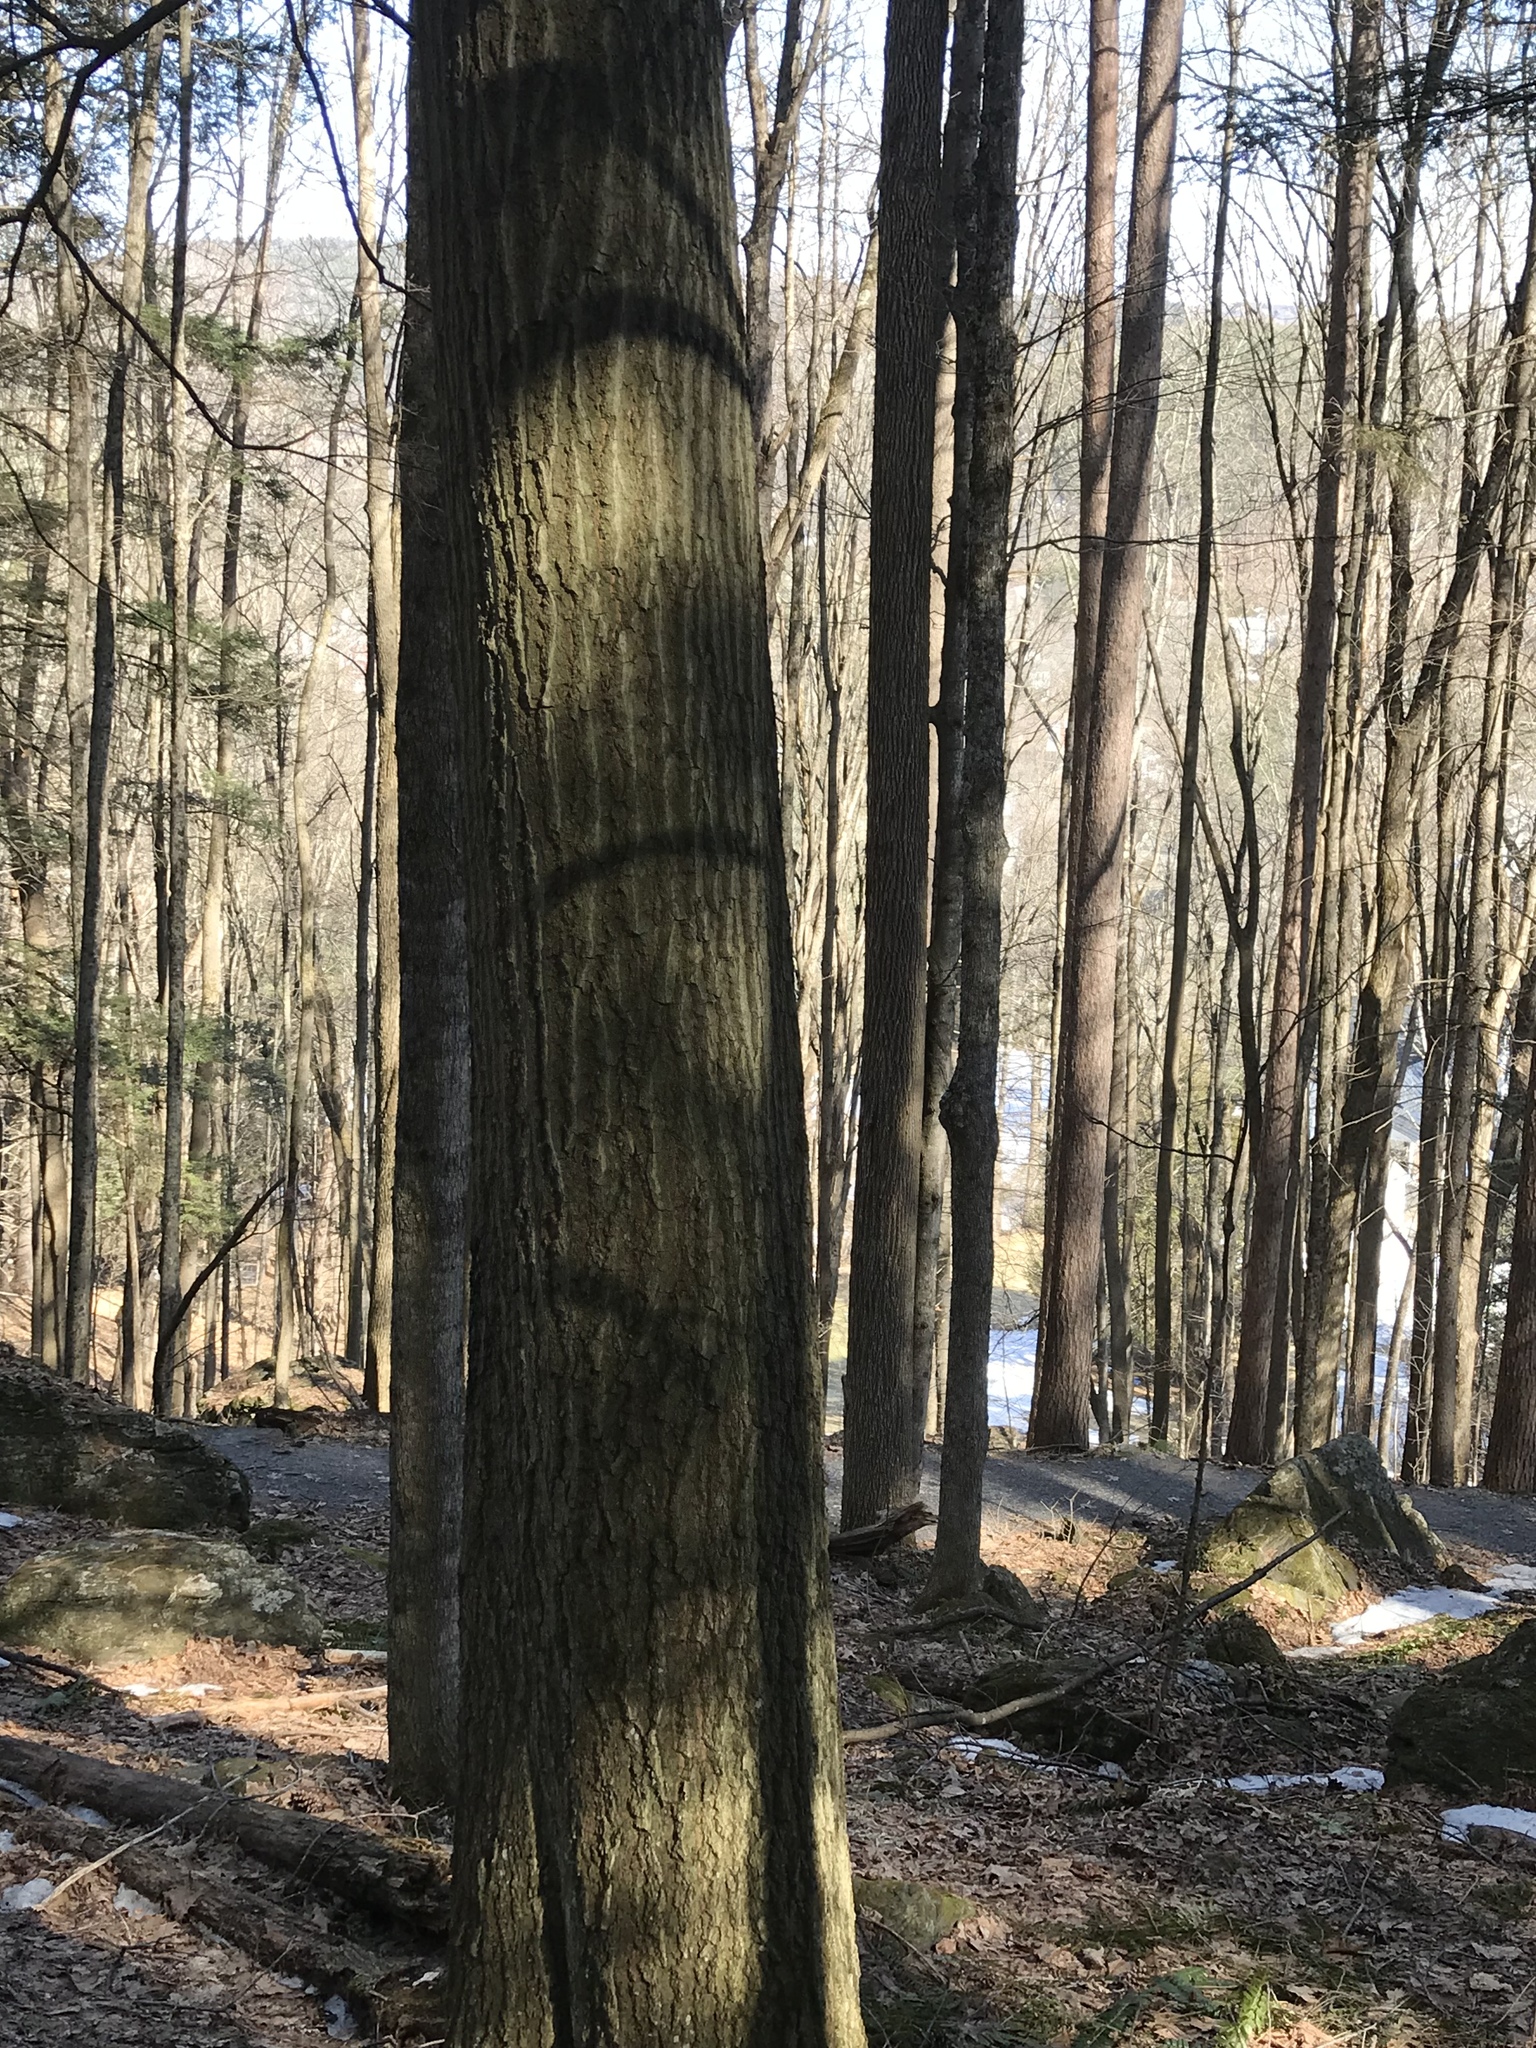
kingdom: Plantae
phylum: Tracheophyta
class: Magnoliopsida
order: Fagales
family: Fagaceae
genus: Quercus
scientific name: Quercus rubra
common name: Red oak
